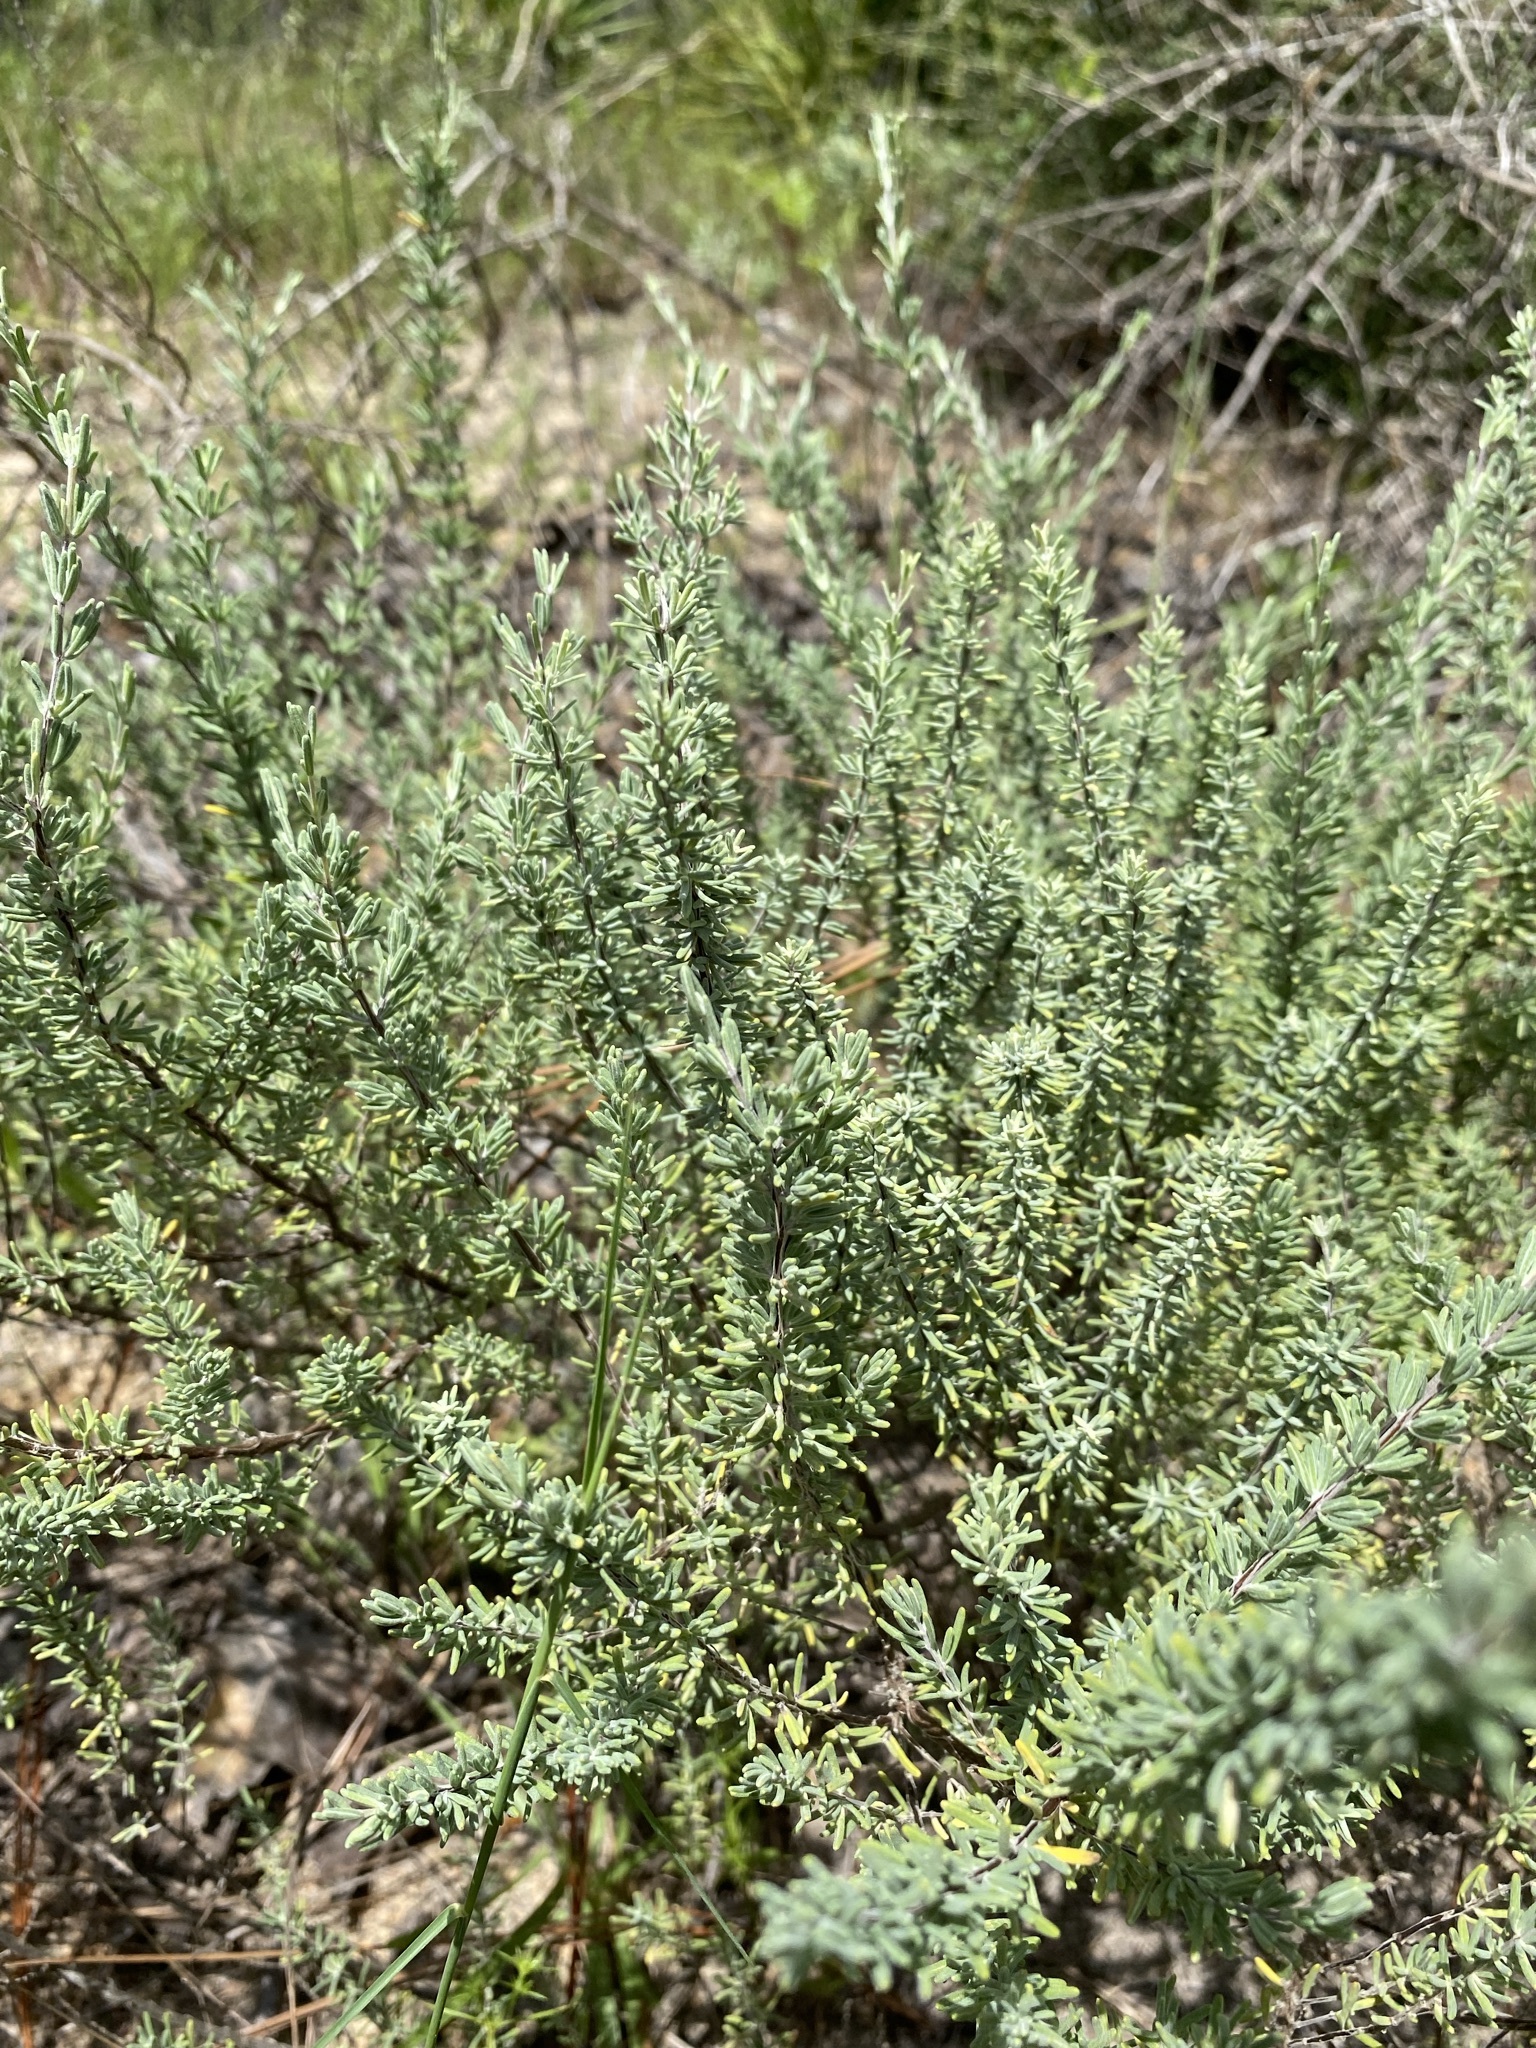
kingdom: Plantae
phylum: Tracheophyta
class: Magnoliopsida
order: Lamiales
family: Lamiaceae
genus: Conradina
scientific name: Conradina canescens
